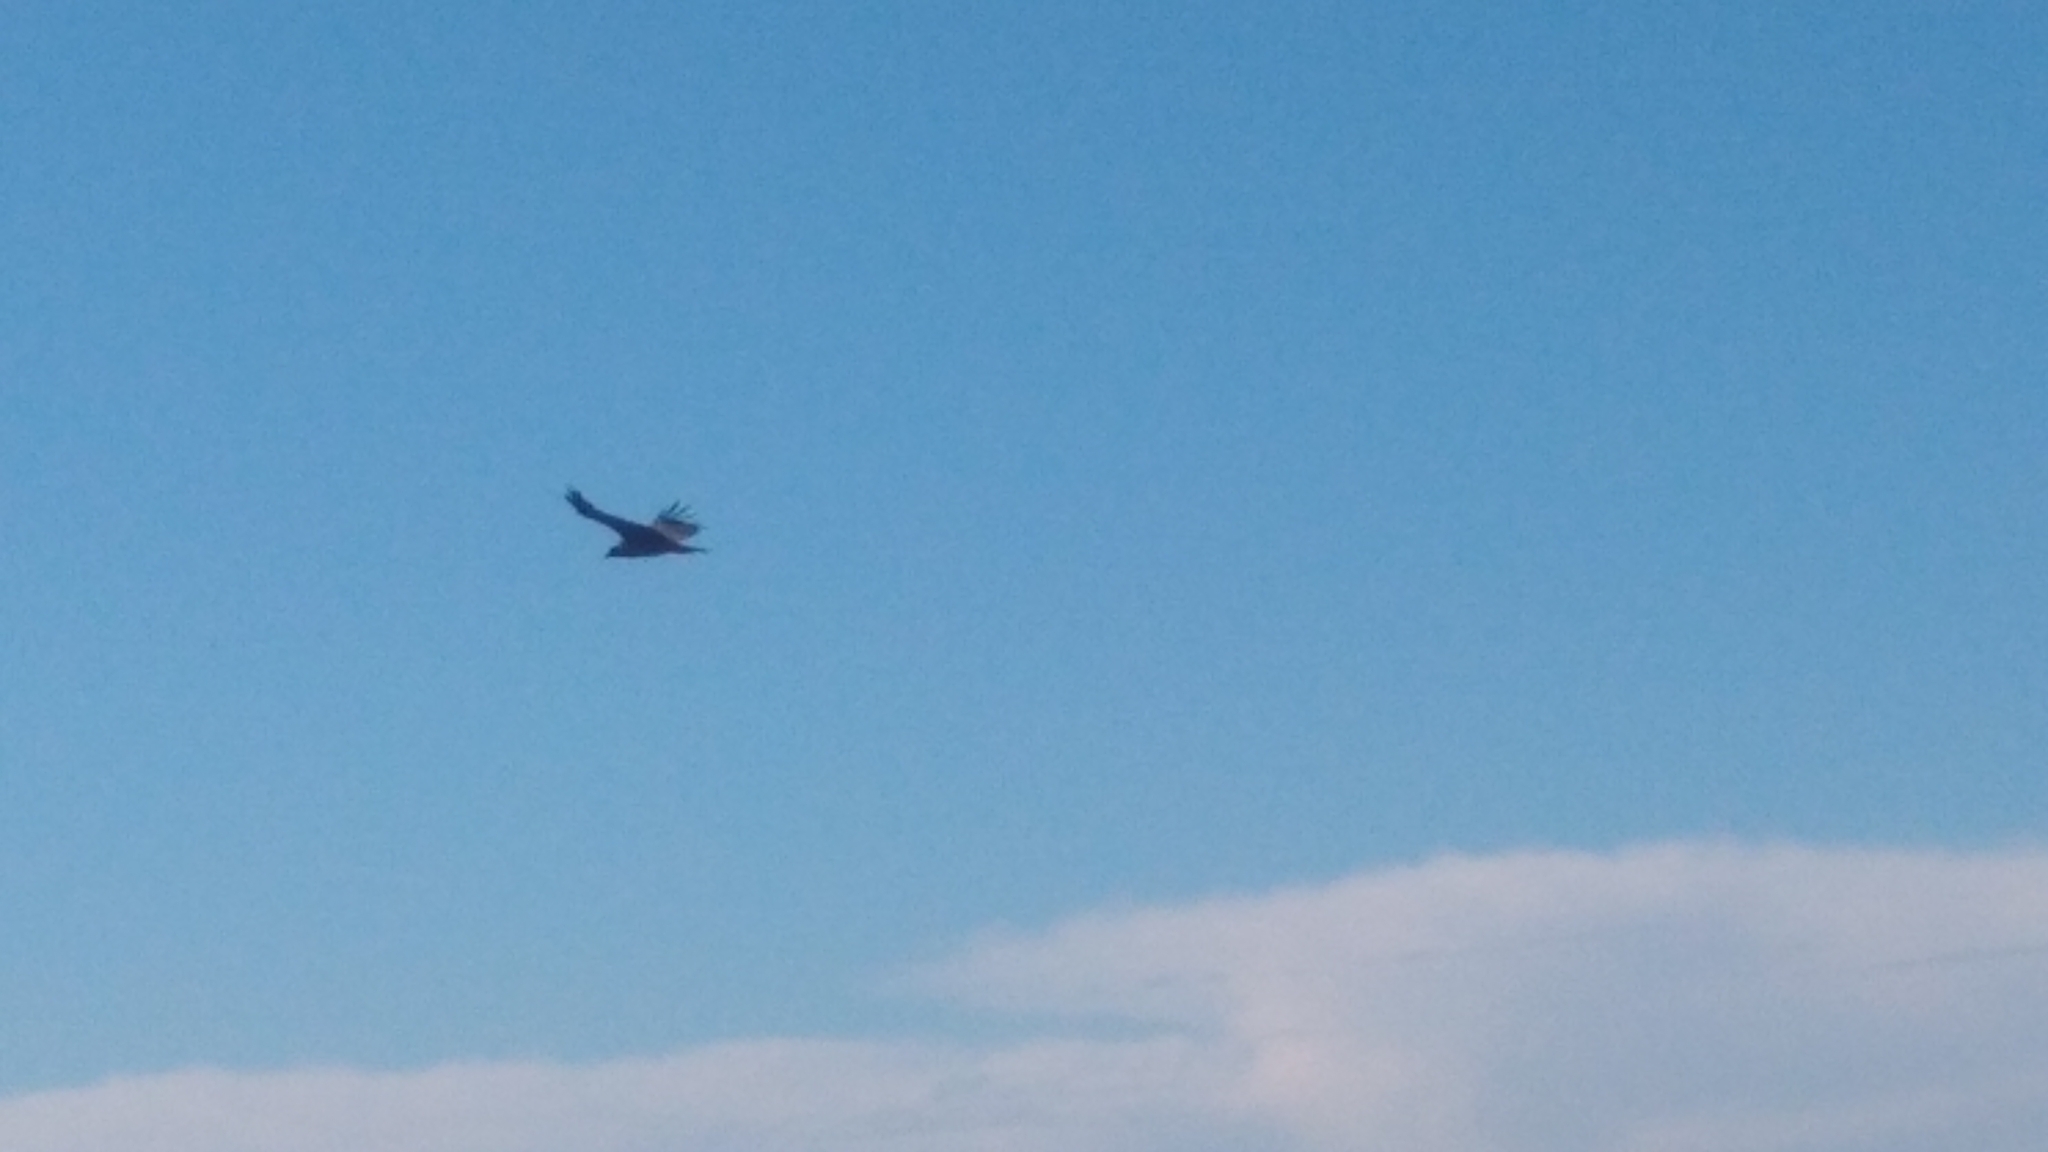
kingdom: Animalia
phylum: Chordata
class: Aves
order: Accipitriformes
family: Cathartidae
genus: Vultur
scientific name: Vultur gryphus
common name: Andean condor
